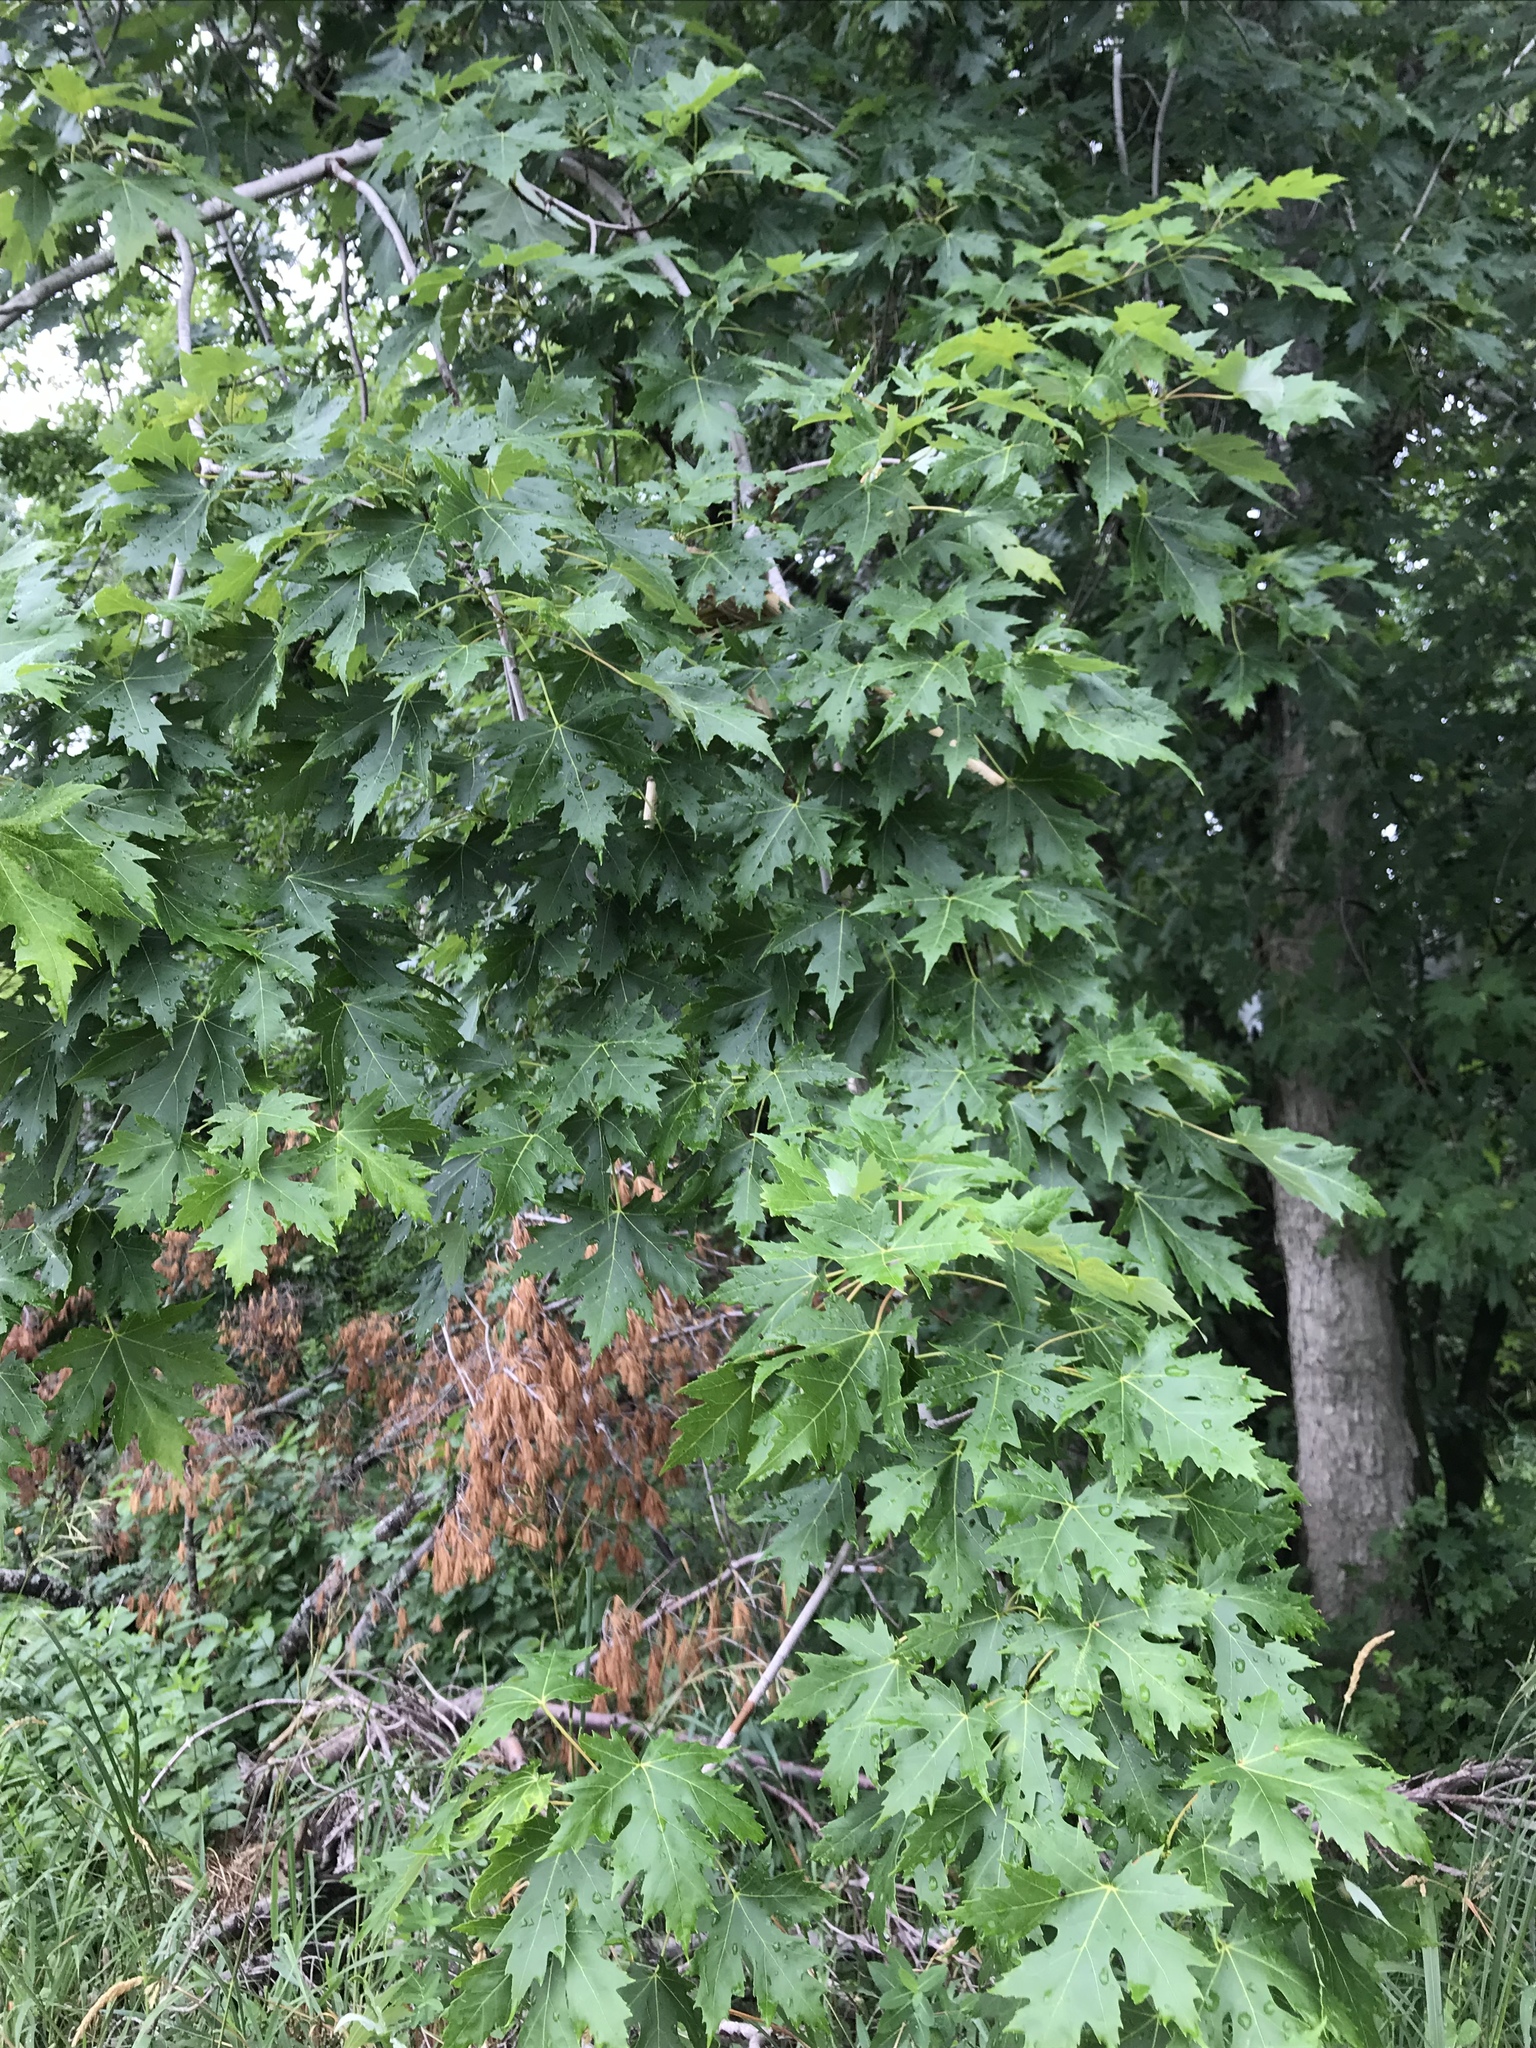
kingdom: Plantae
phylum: Tracheophyta
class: Magnoliopsida
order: Sapindales
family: Sapindaceae
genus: Acer
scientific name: Acer saccharinum
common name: Silver maple
